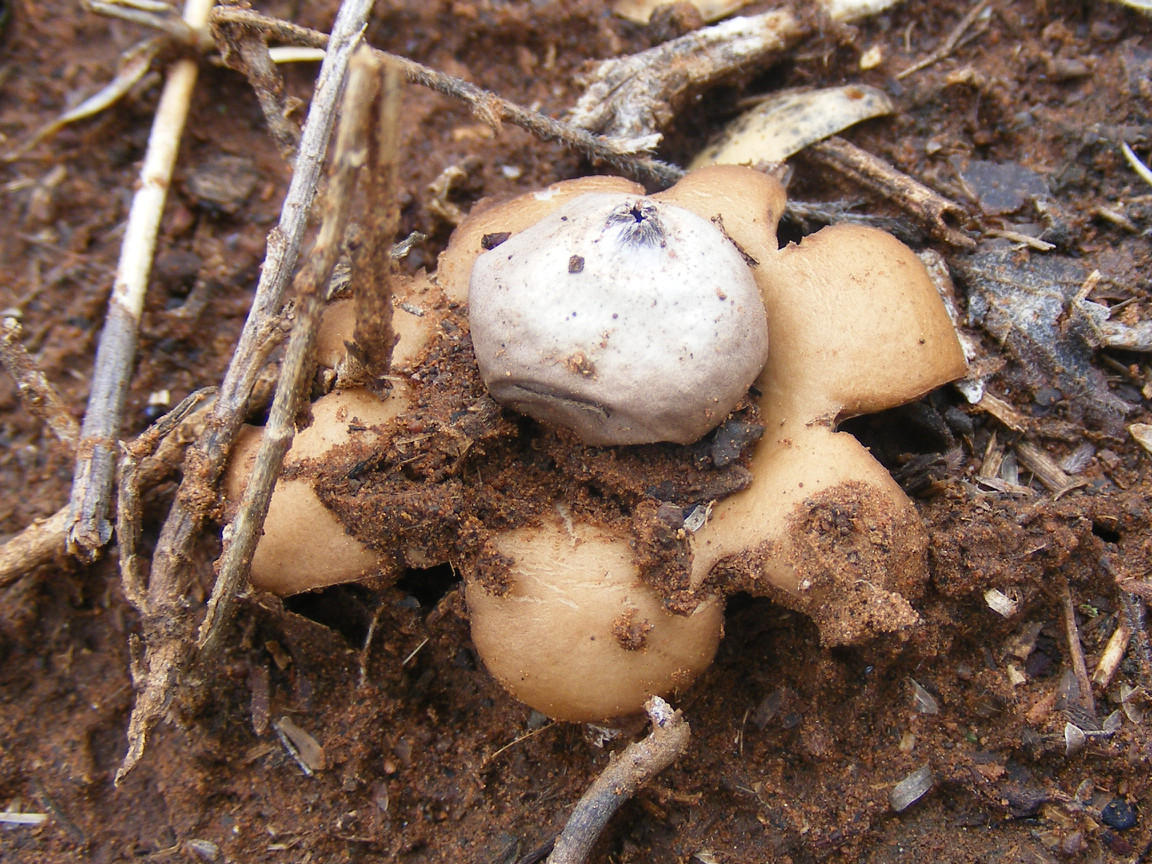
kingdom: Fungi
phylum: Basidiomycota
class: Agaricomycetes
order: Geastrales
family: Geastraceae
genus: Geastrum
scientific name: Geastrum saccatum
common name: Rounded earthstar
